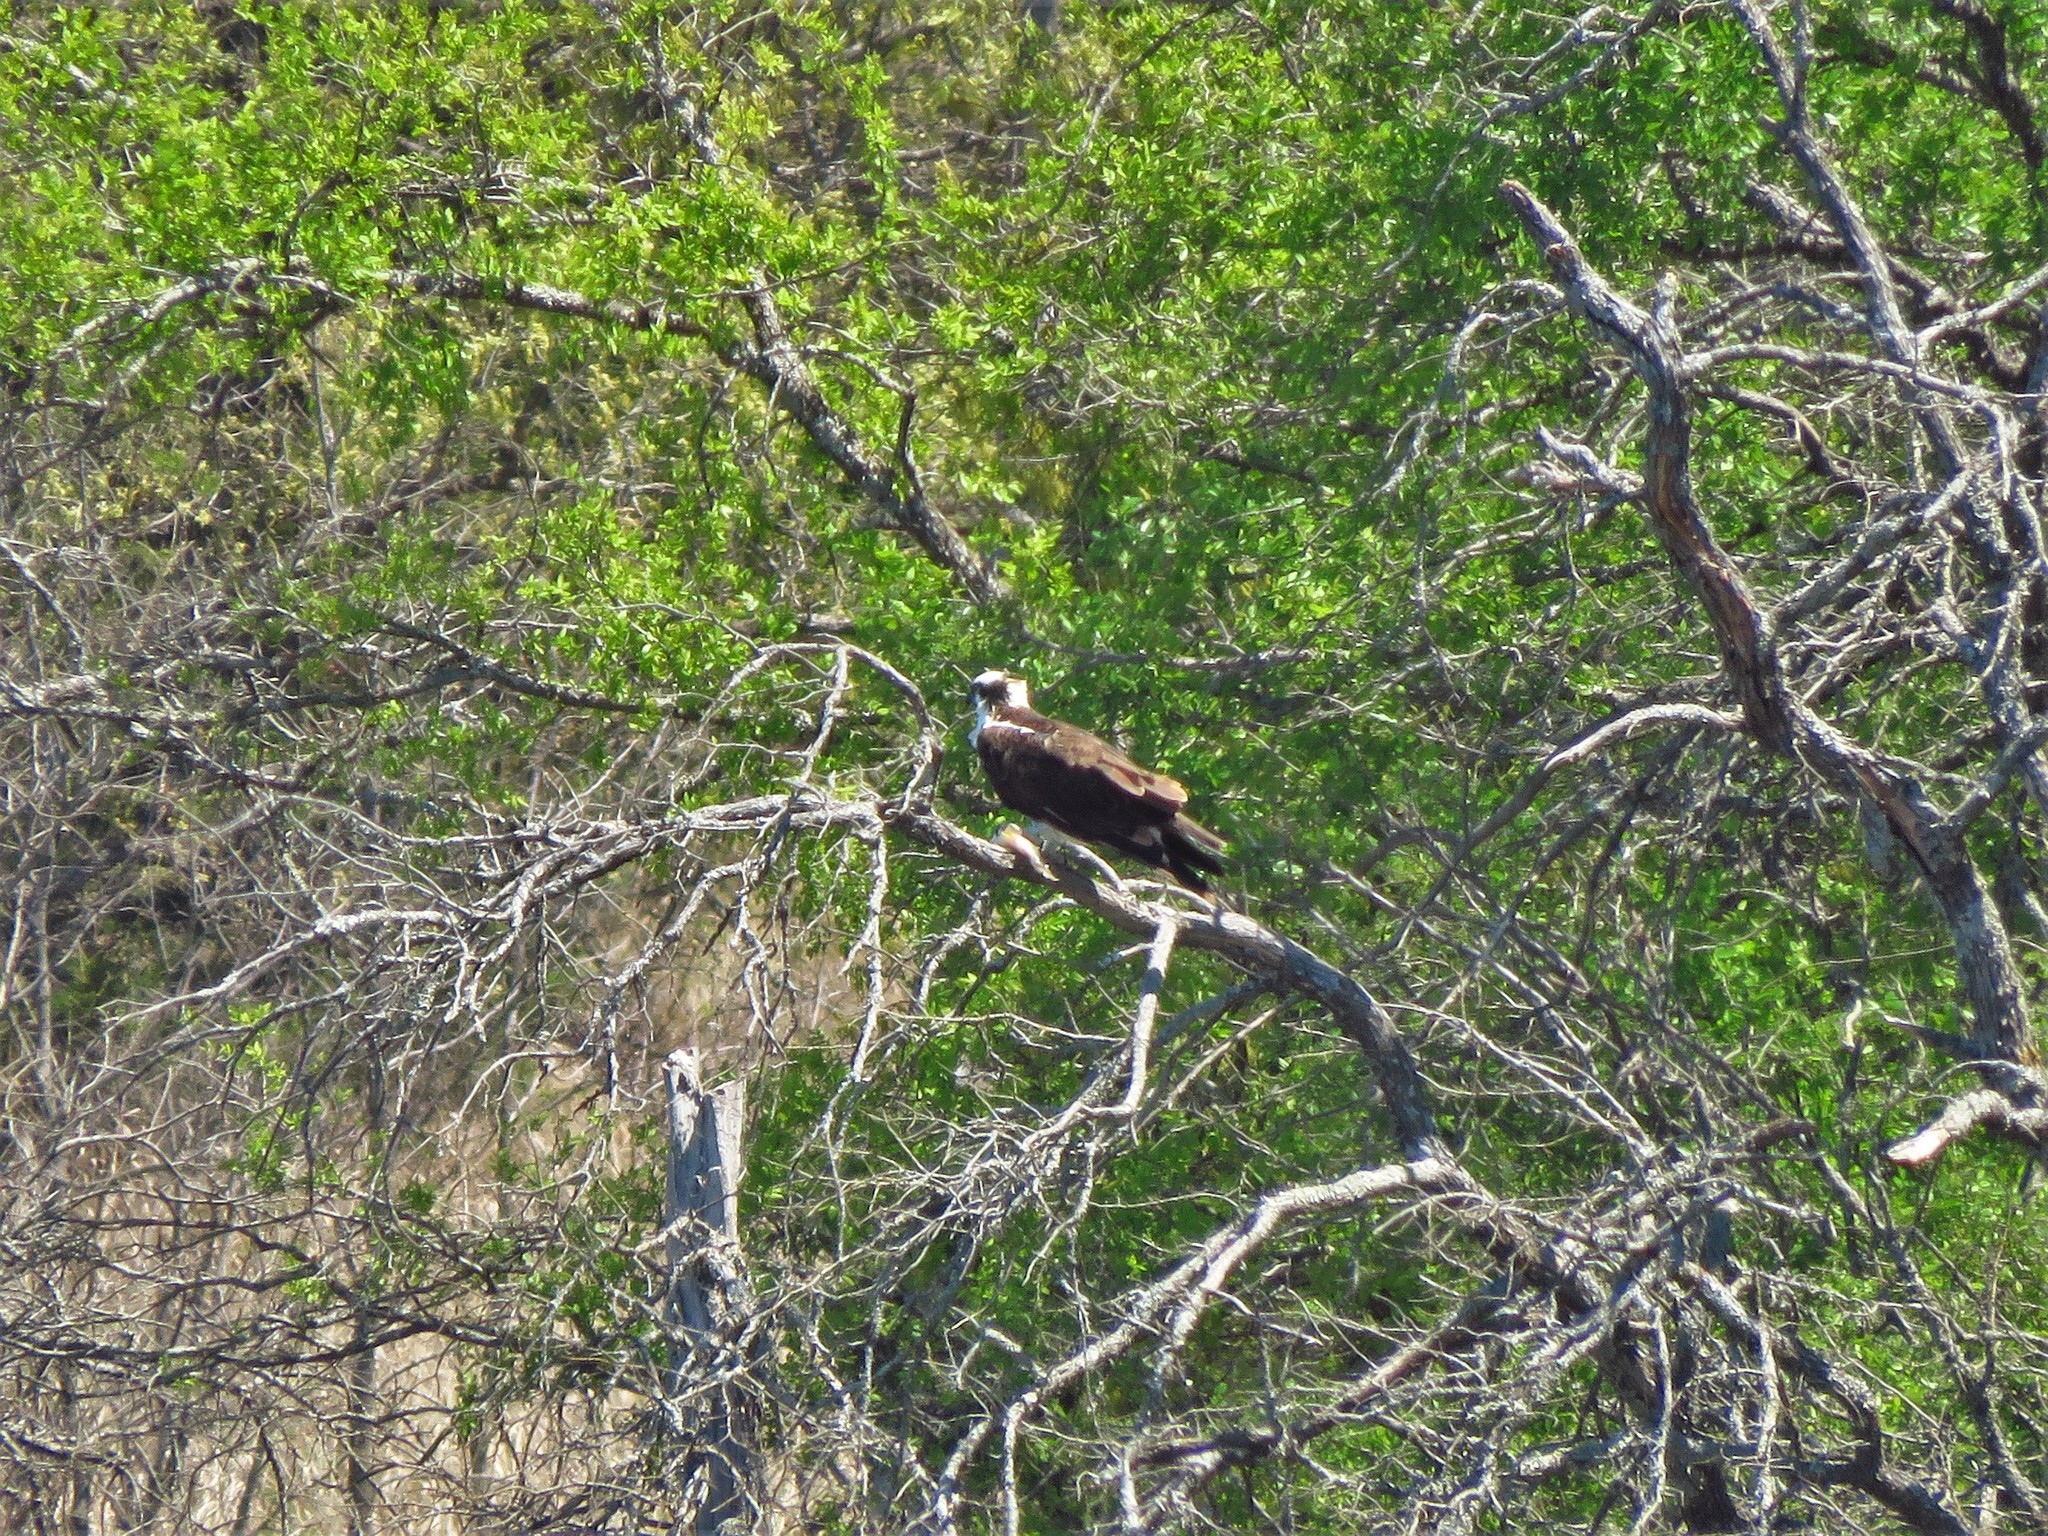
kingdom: Animalia
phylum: Chordata
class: Aves
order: Accipitriformes
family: Pandionidae
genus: Pandion
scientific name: Pandion haliaetus
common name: Osprey
